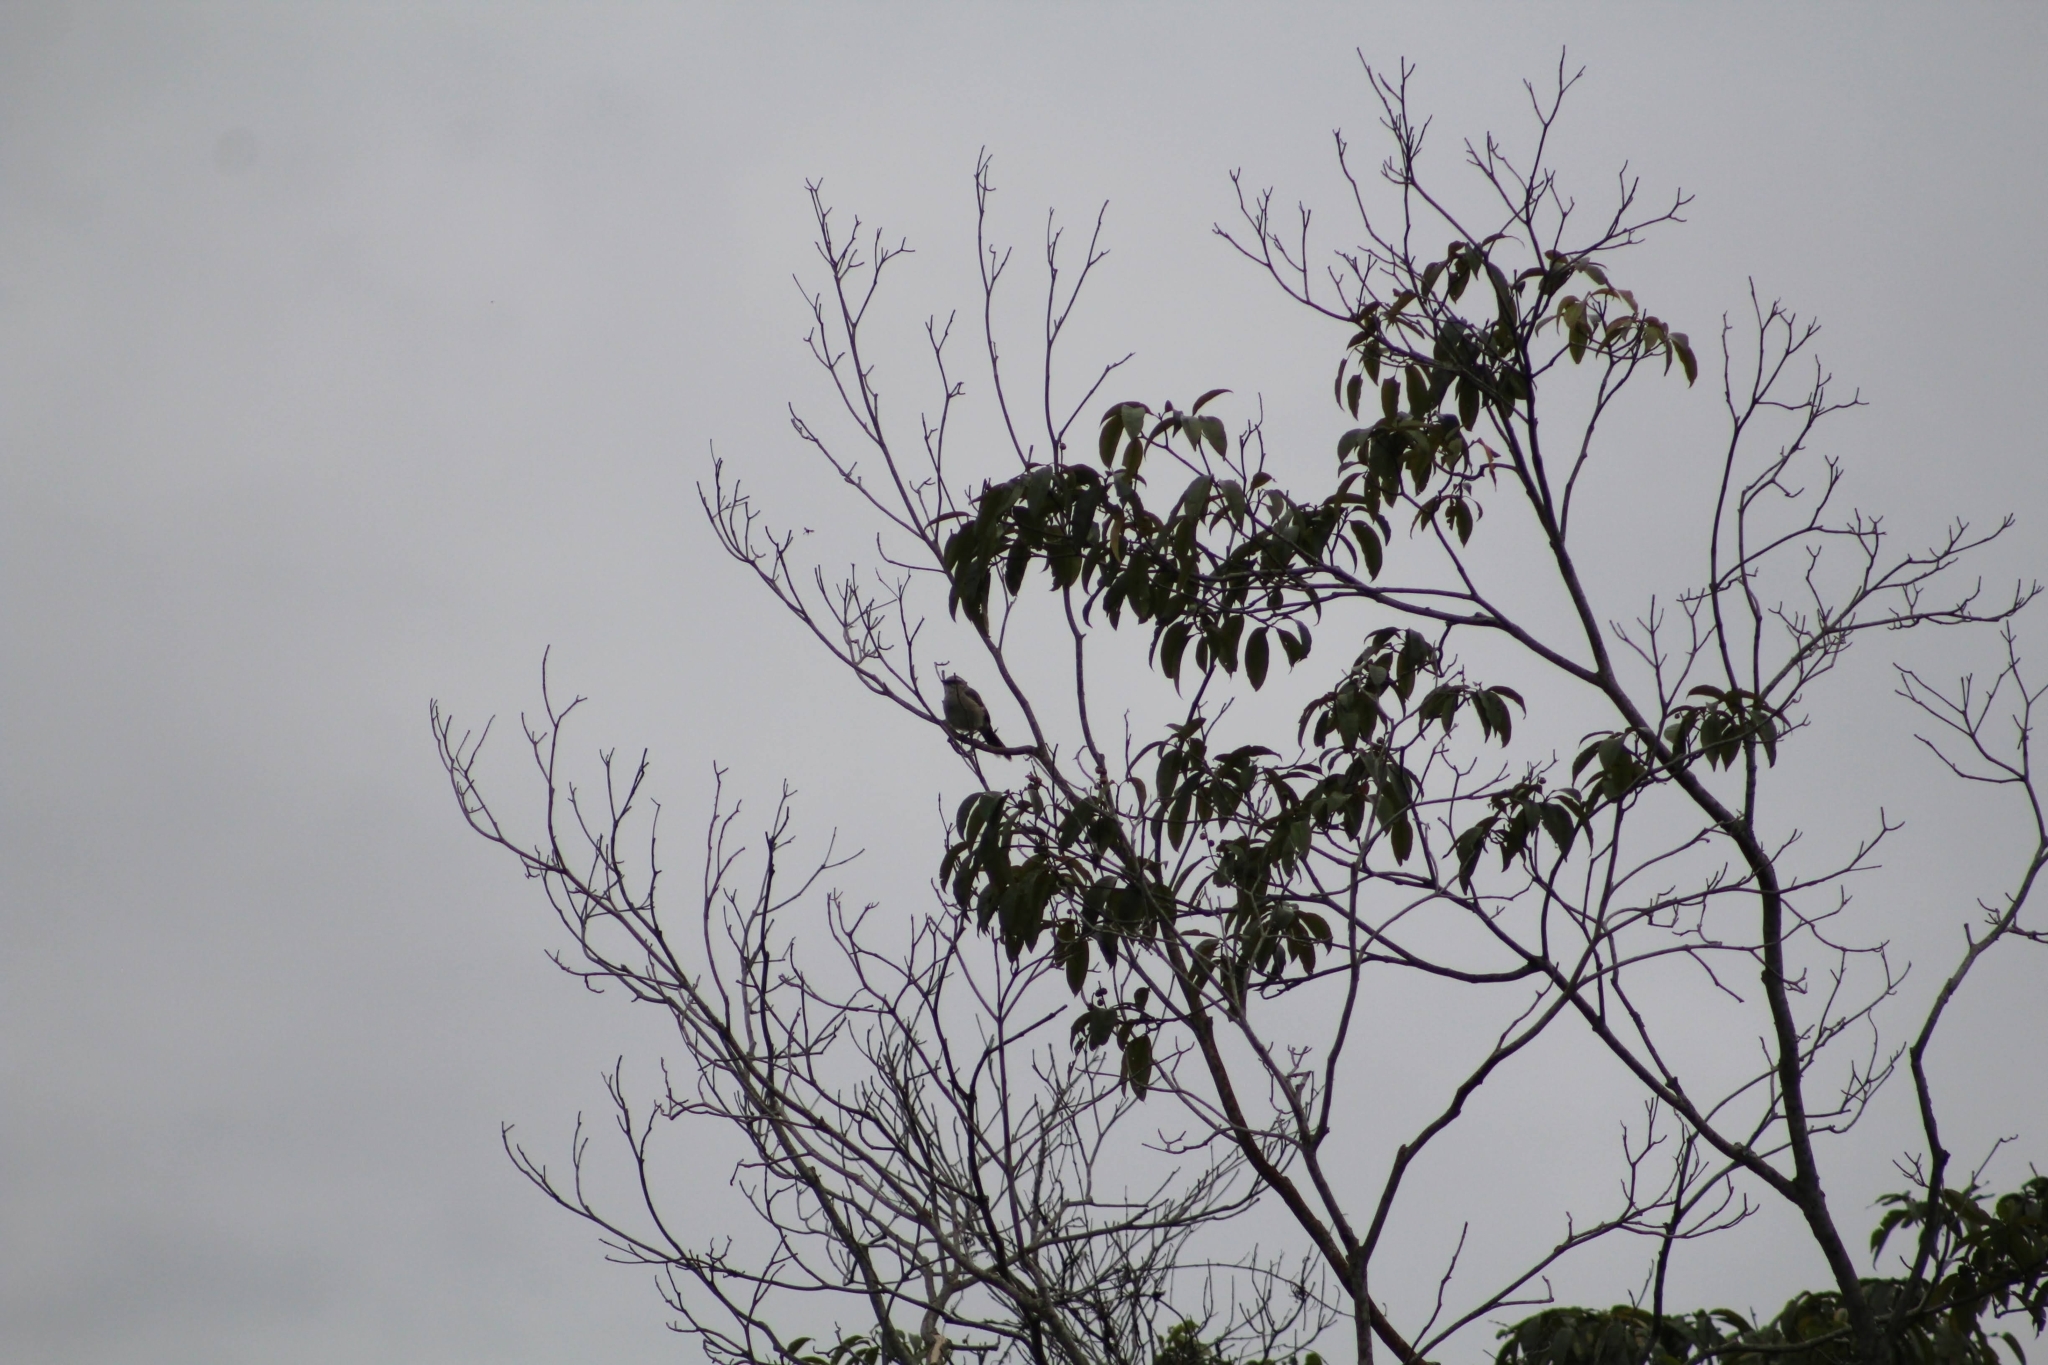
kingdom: Animalia
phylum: Chordata
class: Aves
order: Passeriformes
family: Mimidae
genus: Mimus
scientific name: Mimus gilvus
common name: Tropical mockingbird
